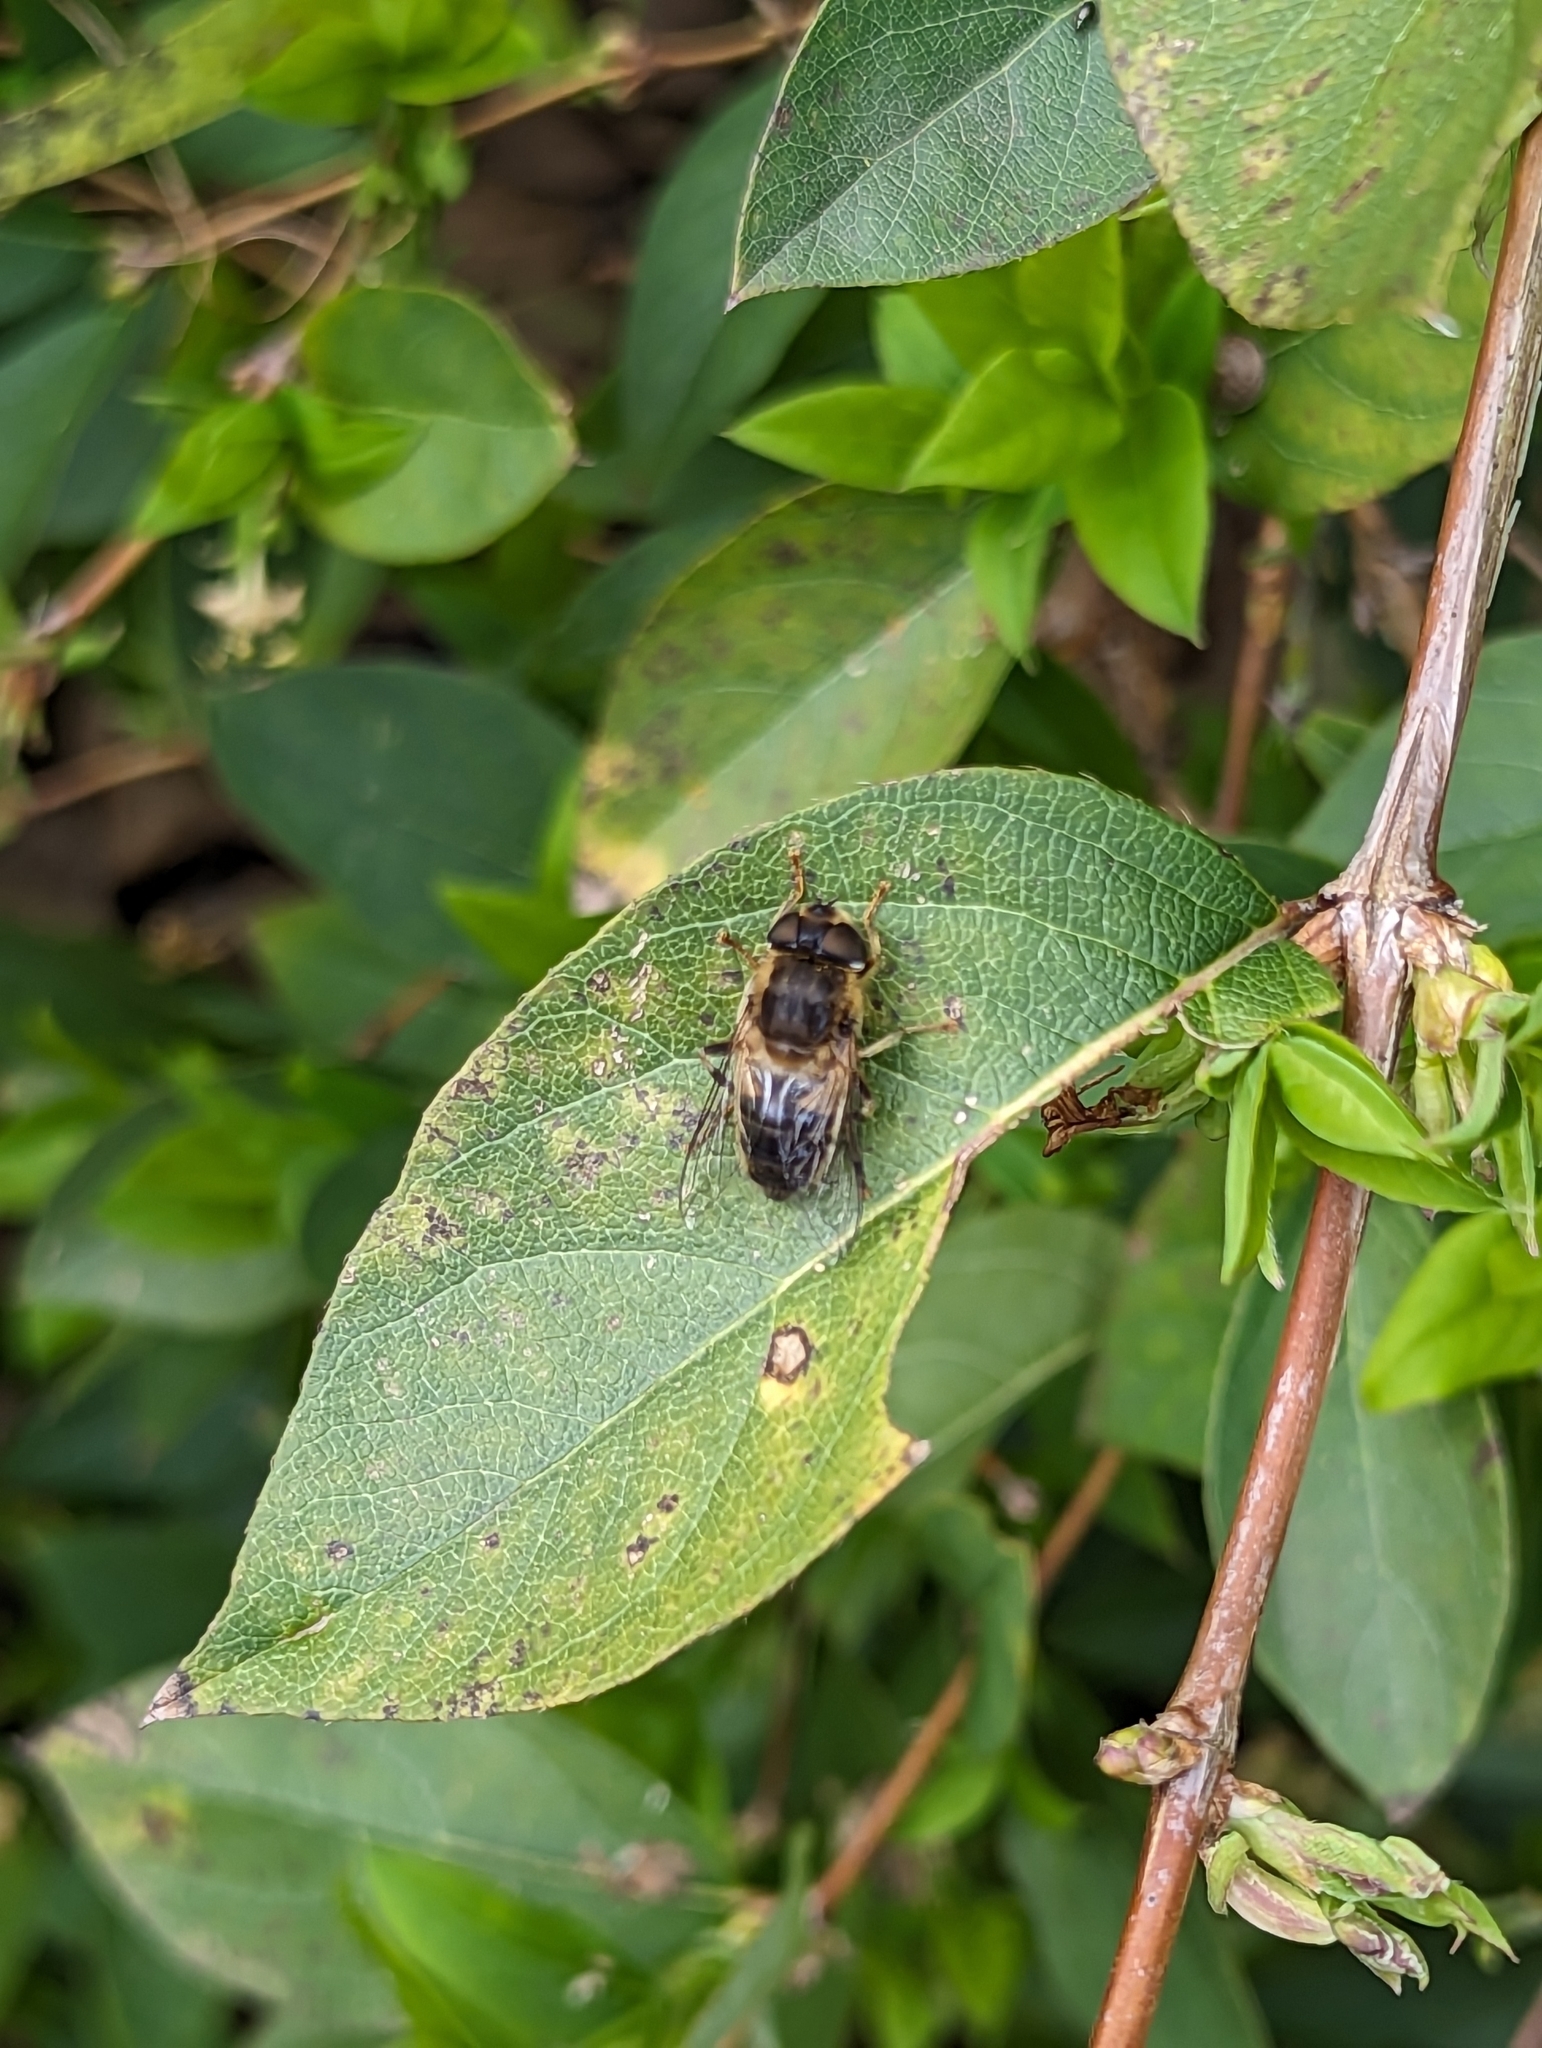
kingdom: Animalia
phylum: Arthropoda
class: Insecta
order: Diptera
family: Syrphidae
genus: Eristalis
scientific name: Eristalis pertinax
